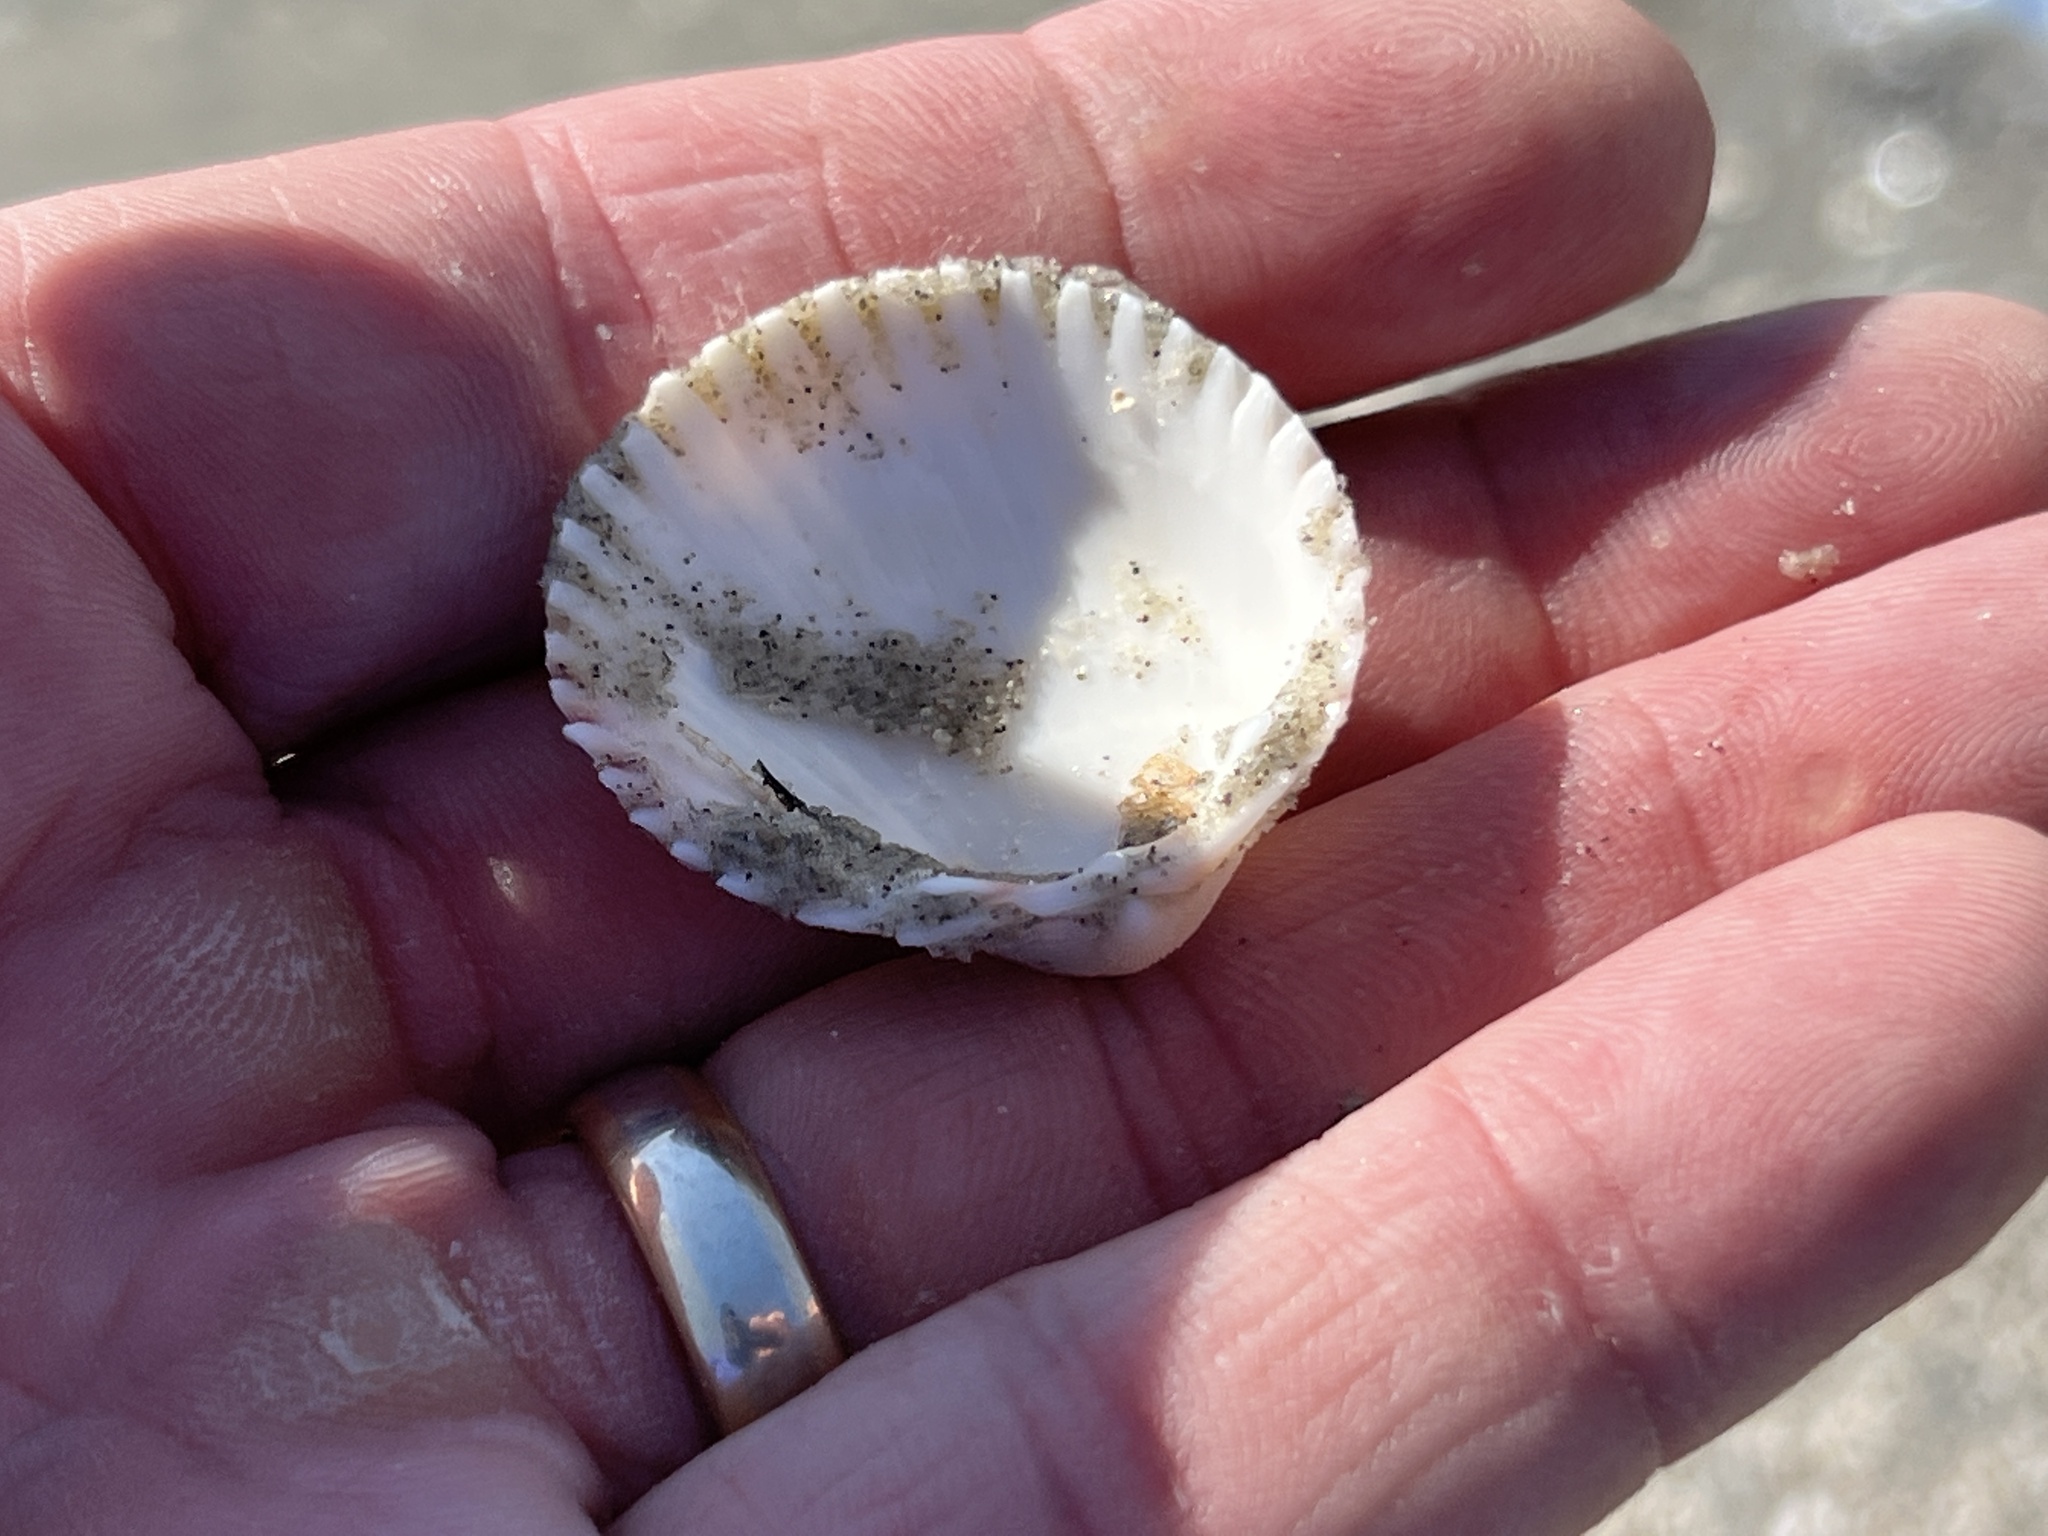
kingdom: Animalia
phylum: Mollusca
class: Bivalvia
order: Cardiida
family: Cardiidae
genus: Dallocardia
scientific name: Dallocardia muricata
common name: Yellow pricklycockle
